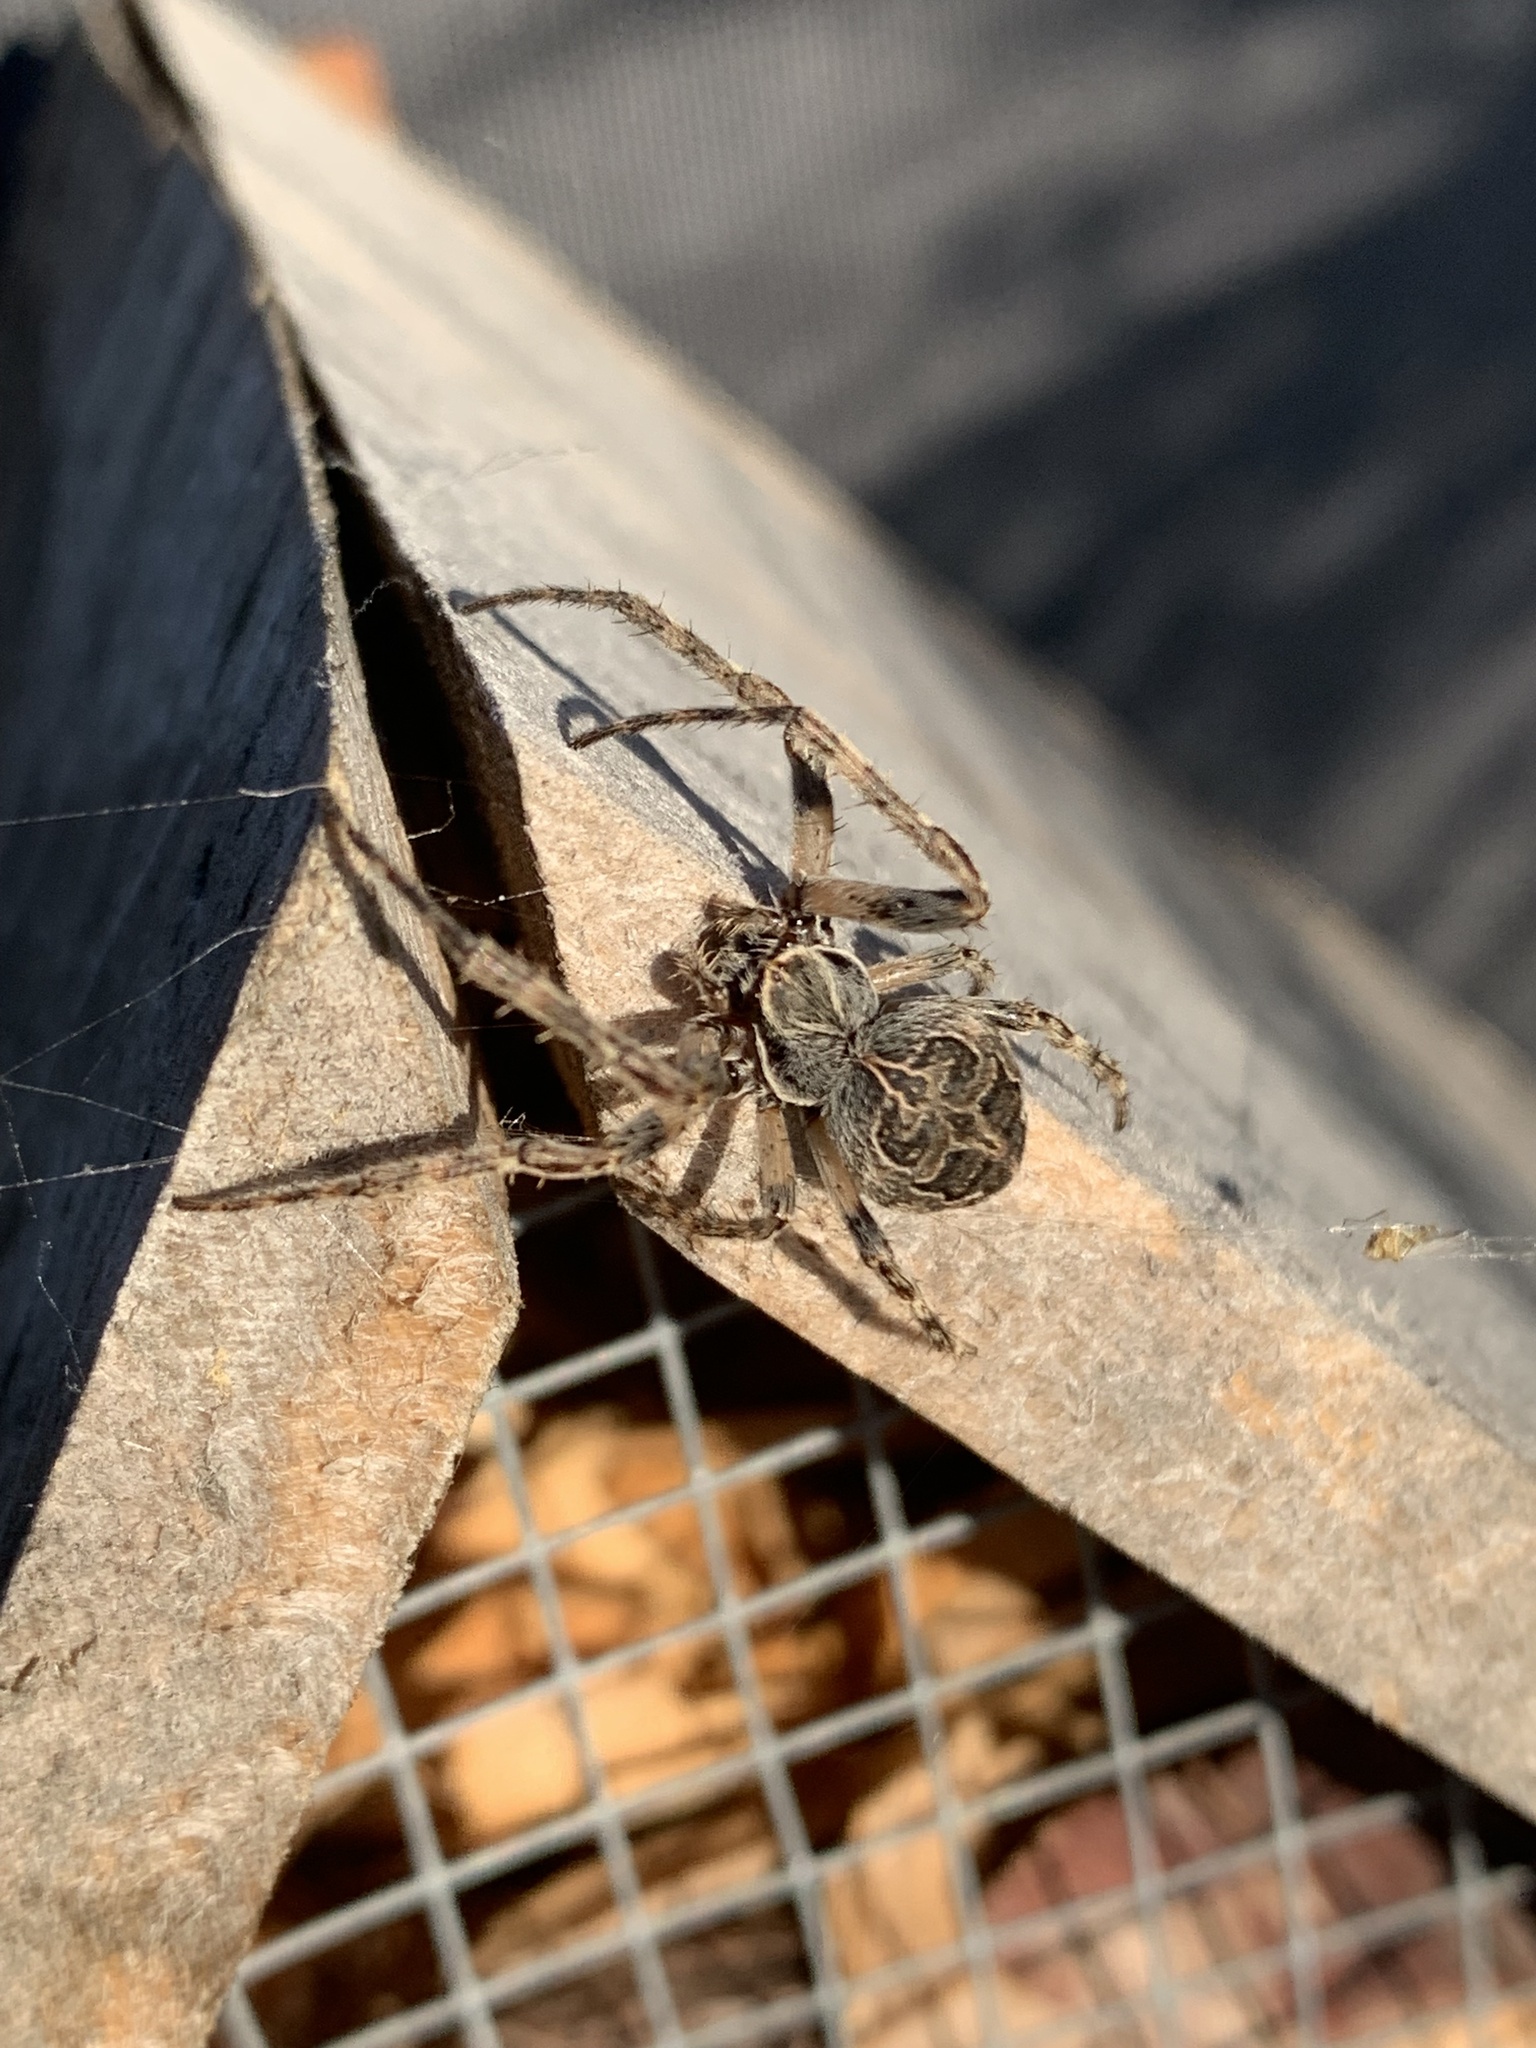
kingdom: Animalia
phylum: Arthropoda
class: Arachnida
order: Araneae
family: Araneidae
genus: Larinioides
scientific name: Larinioides sclopetarius
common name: Bridge orbweaver
